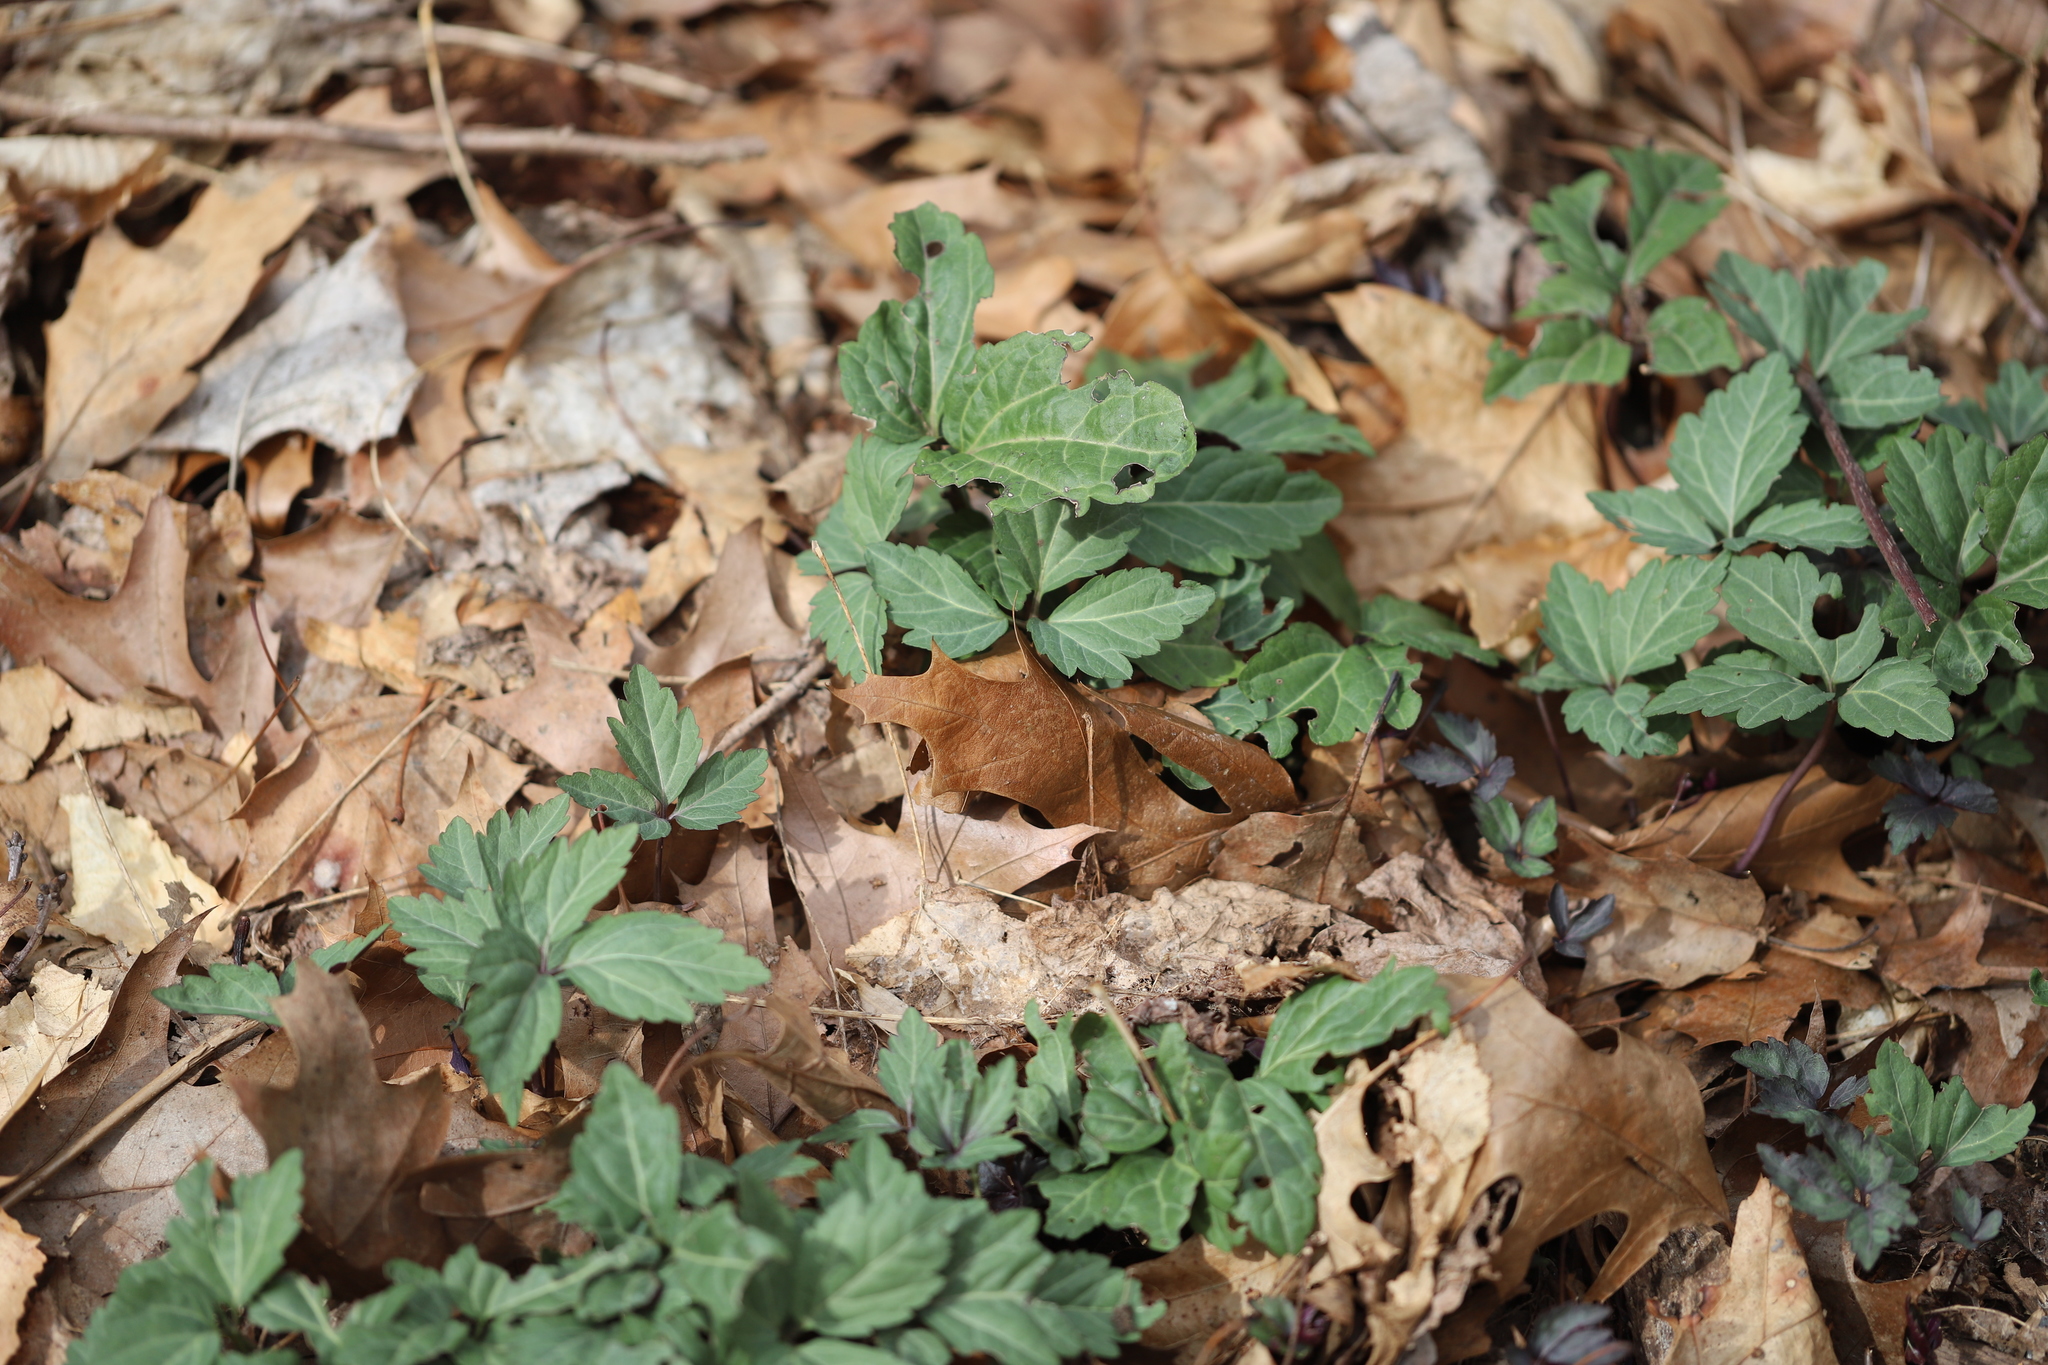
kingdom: Plantae
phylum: Tracheophyta
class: Magnoliopsida
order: Brassicales
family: Brassicaceae
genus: Cardamine
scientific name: Cardamine diphylla
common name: Broad-leaved toothwort
